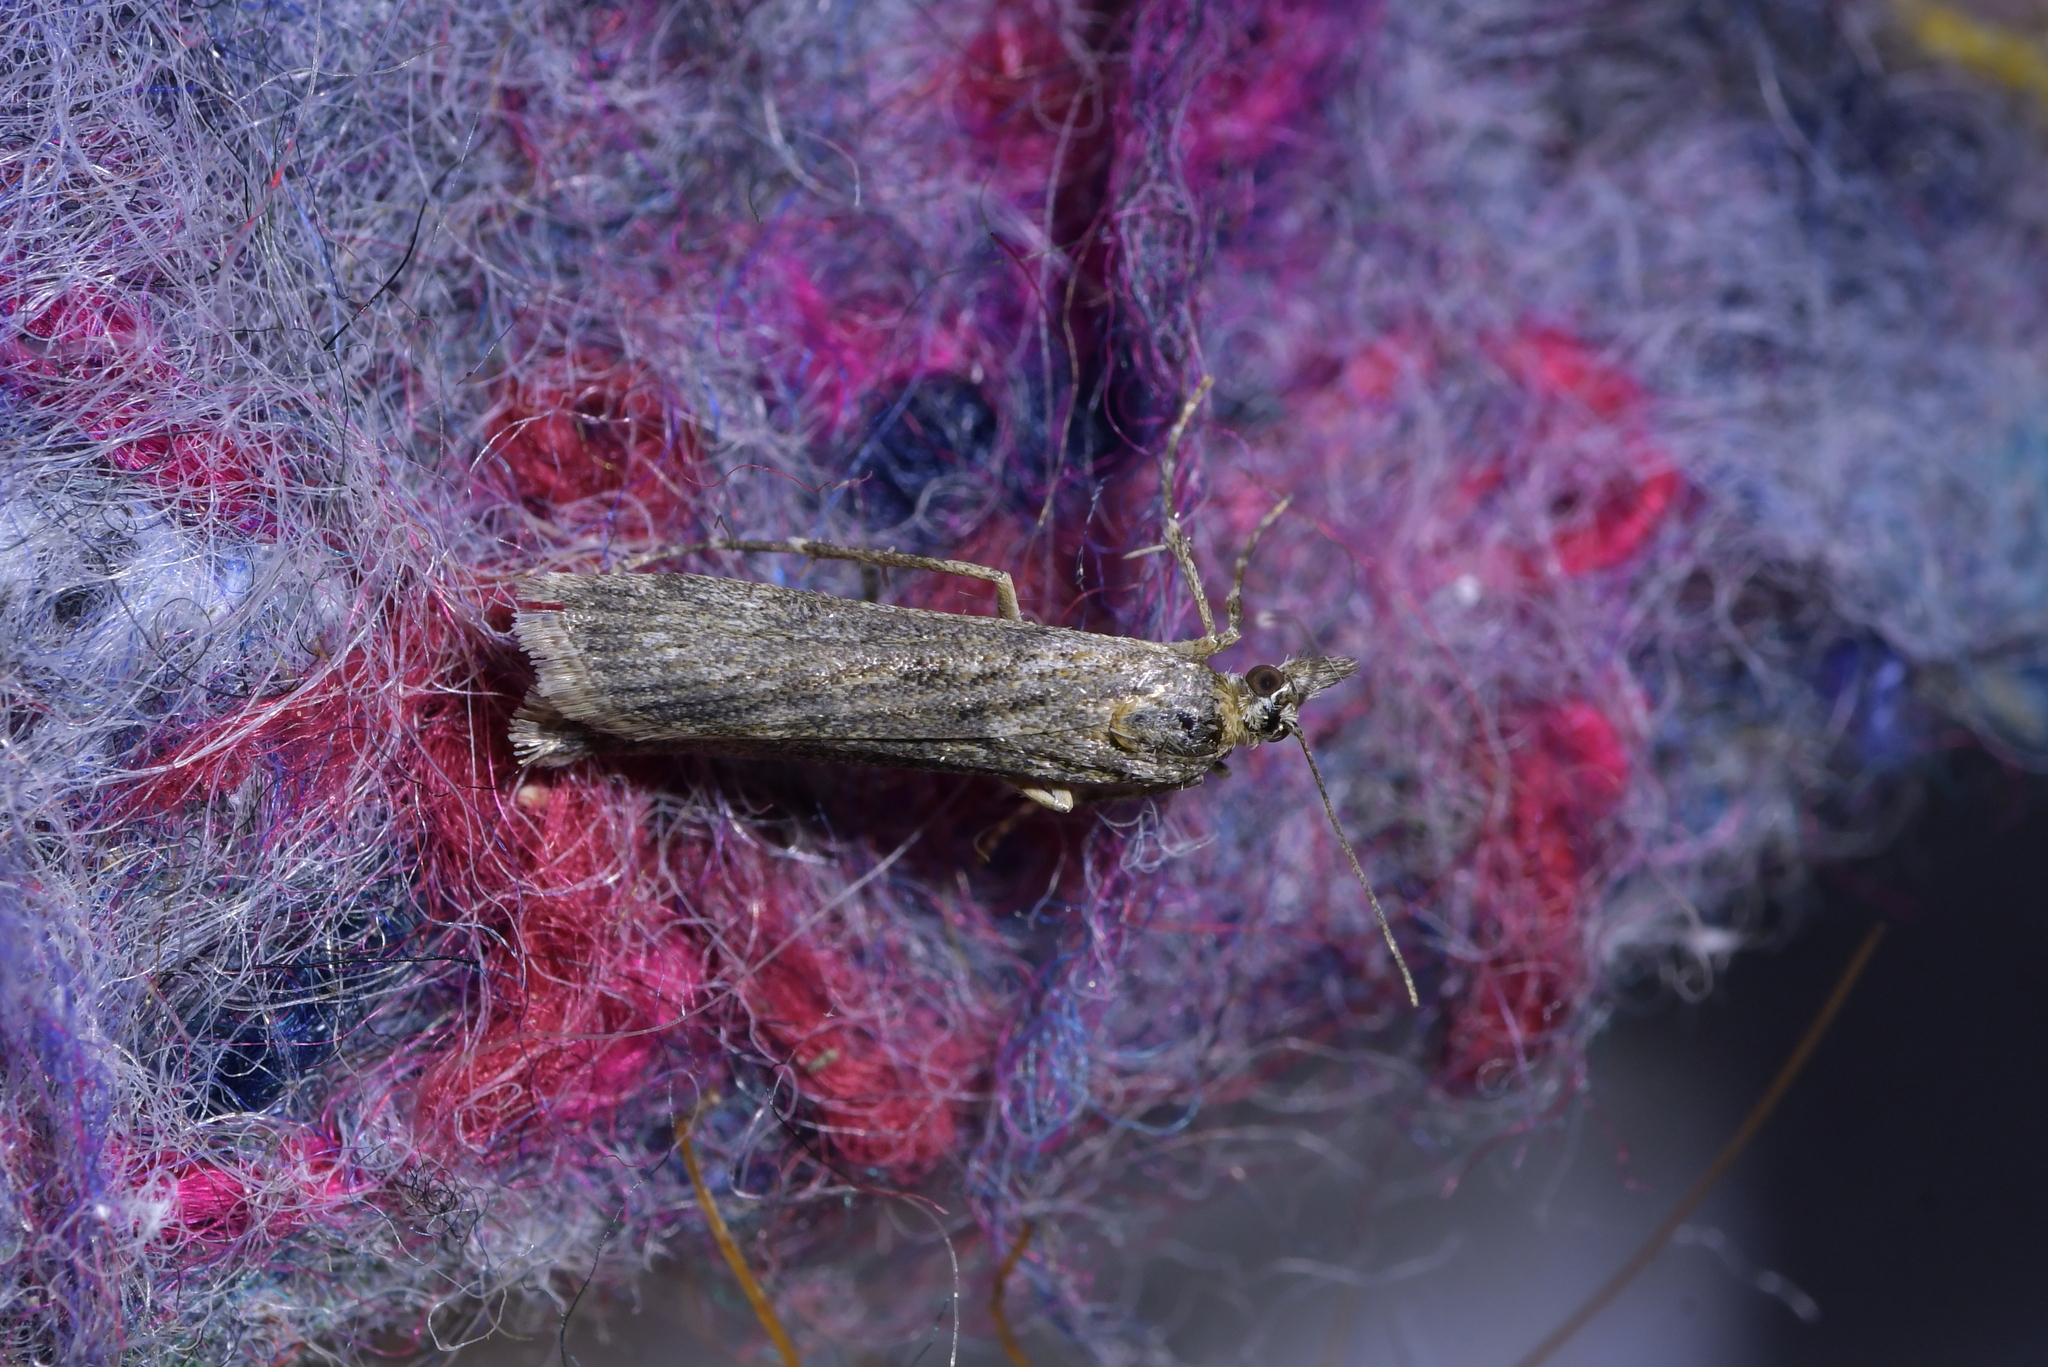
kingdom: Animalia
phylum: Arthropoda
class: Insecta
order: Lepidoptera
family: Crambidae
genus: Eudonia
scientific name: Eudonia leptalea
